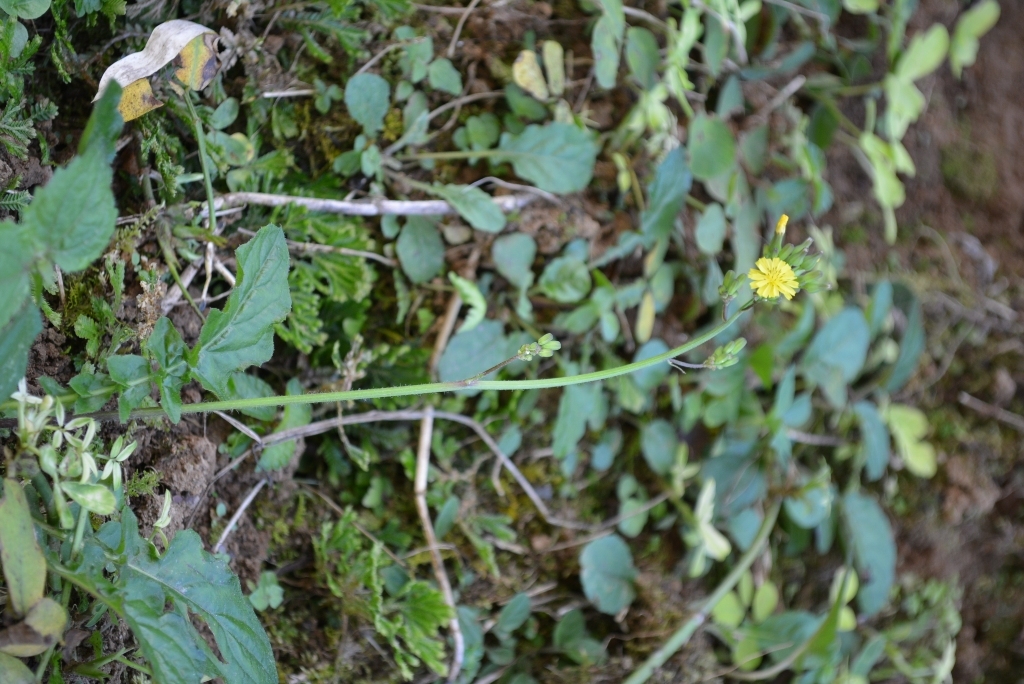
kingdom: Plantae
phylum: Tracheophyta
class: Magnoliopsida
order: Asterales
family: Asteraceae
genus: Youngia
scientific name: Youngia japonica
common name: Oriental false hawksbeard
